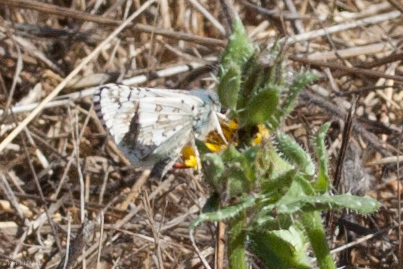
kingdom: Animalia
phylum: Arthropoda
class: Insecta
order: Lepidoptera
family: Hesperiidae
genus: Burnsius
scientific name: Burnsius communis
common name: Common checkered-skipper
